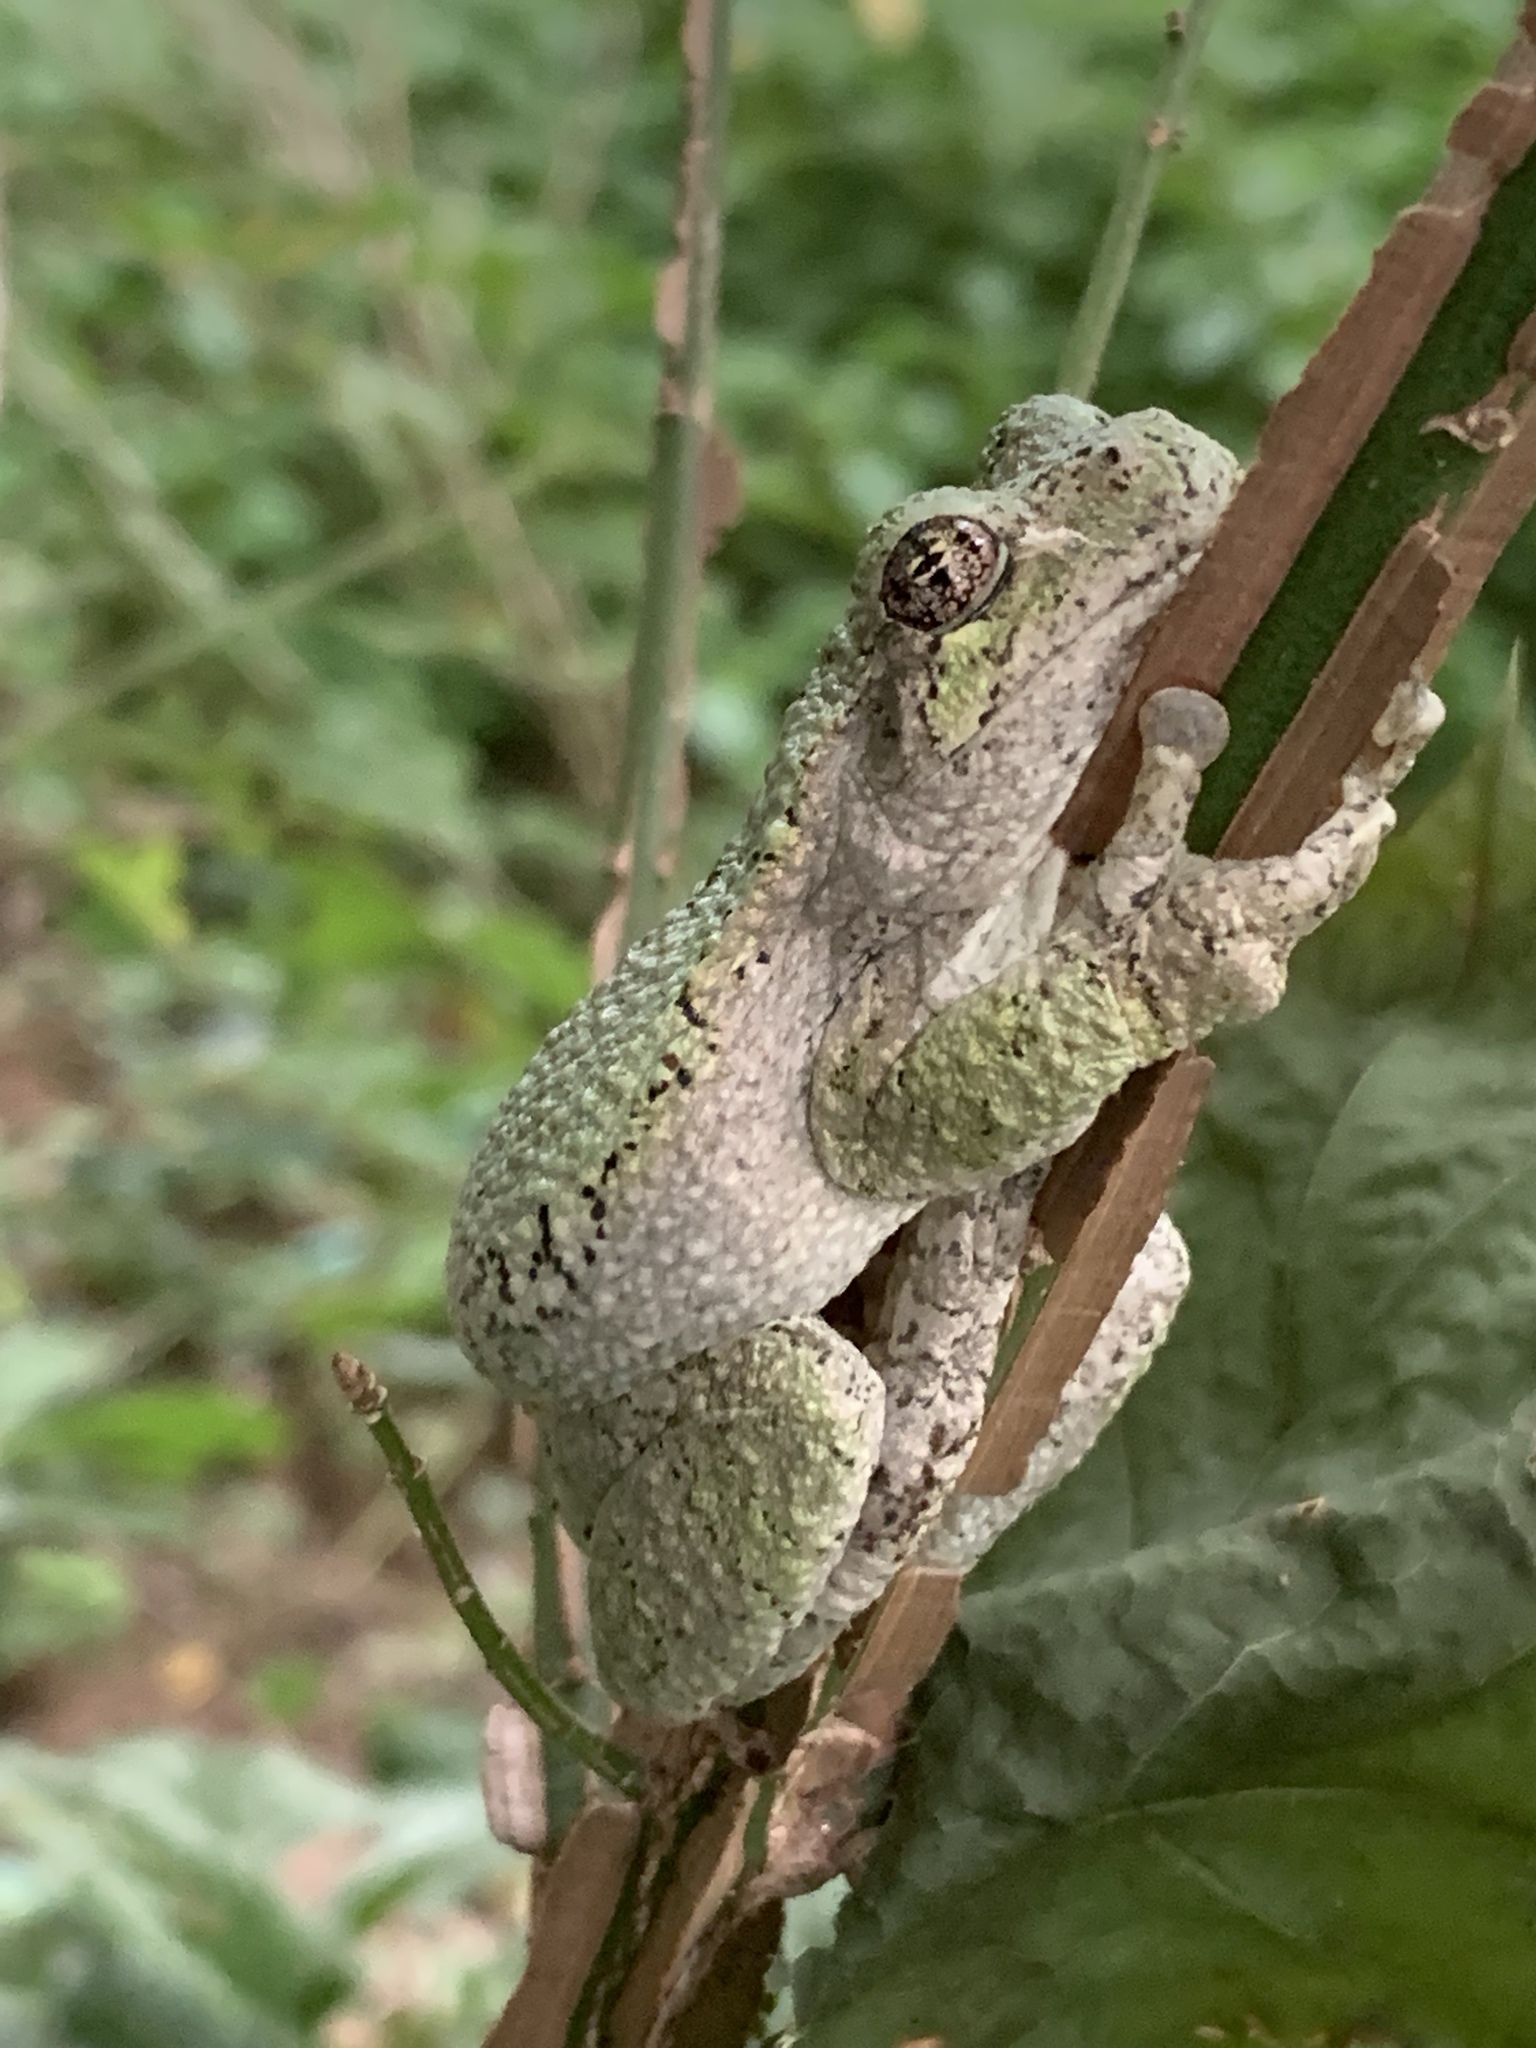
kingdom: Animalia
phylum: Chordata
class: Amphibia
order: Anura
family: Hylidae
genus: Dryophytes
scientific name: Dryophytes versicolor
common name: Gray treefrog
